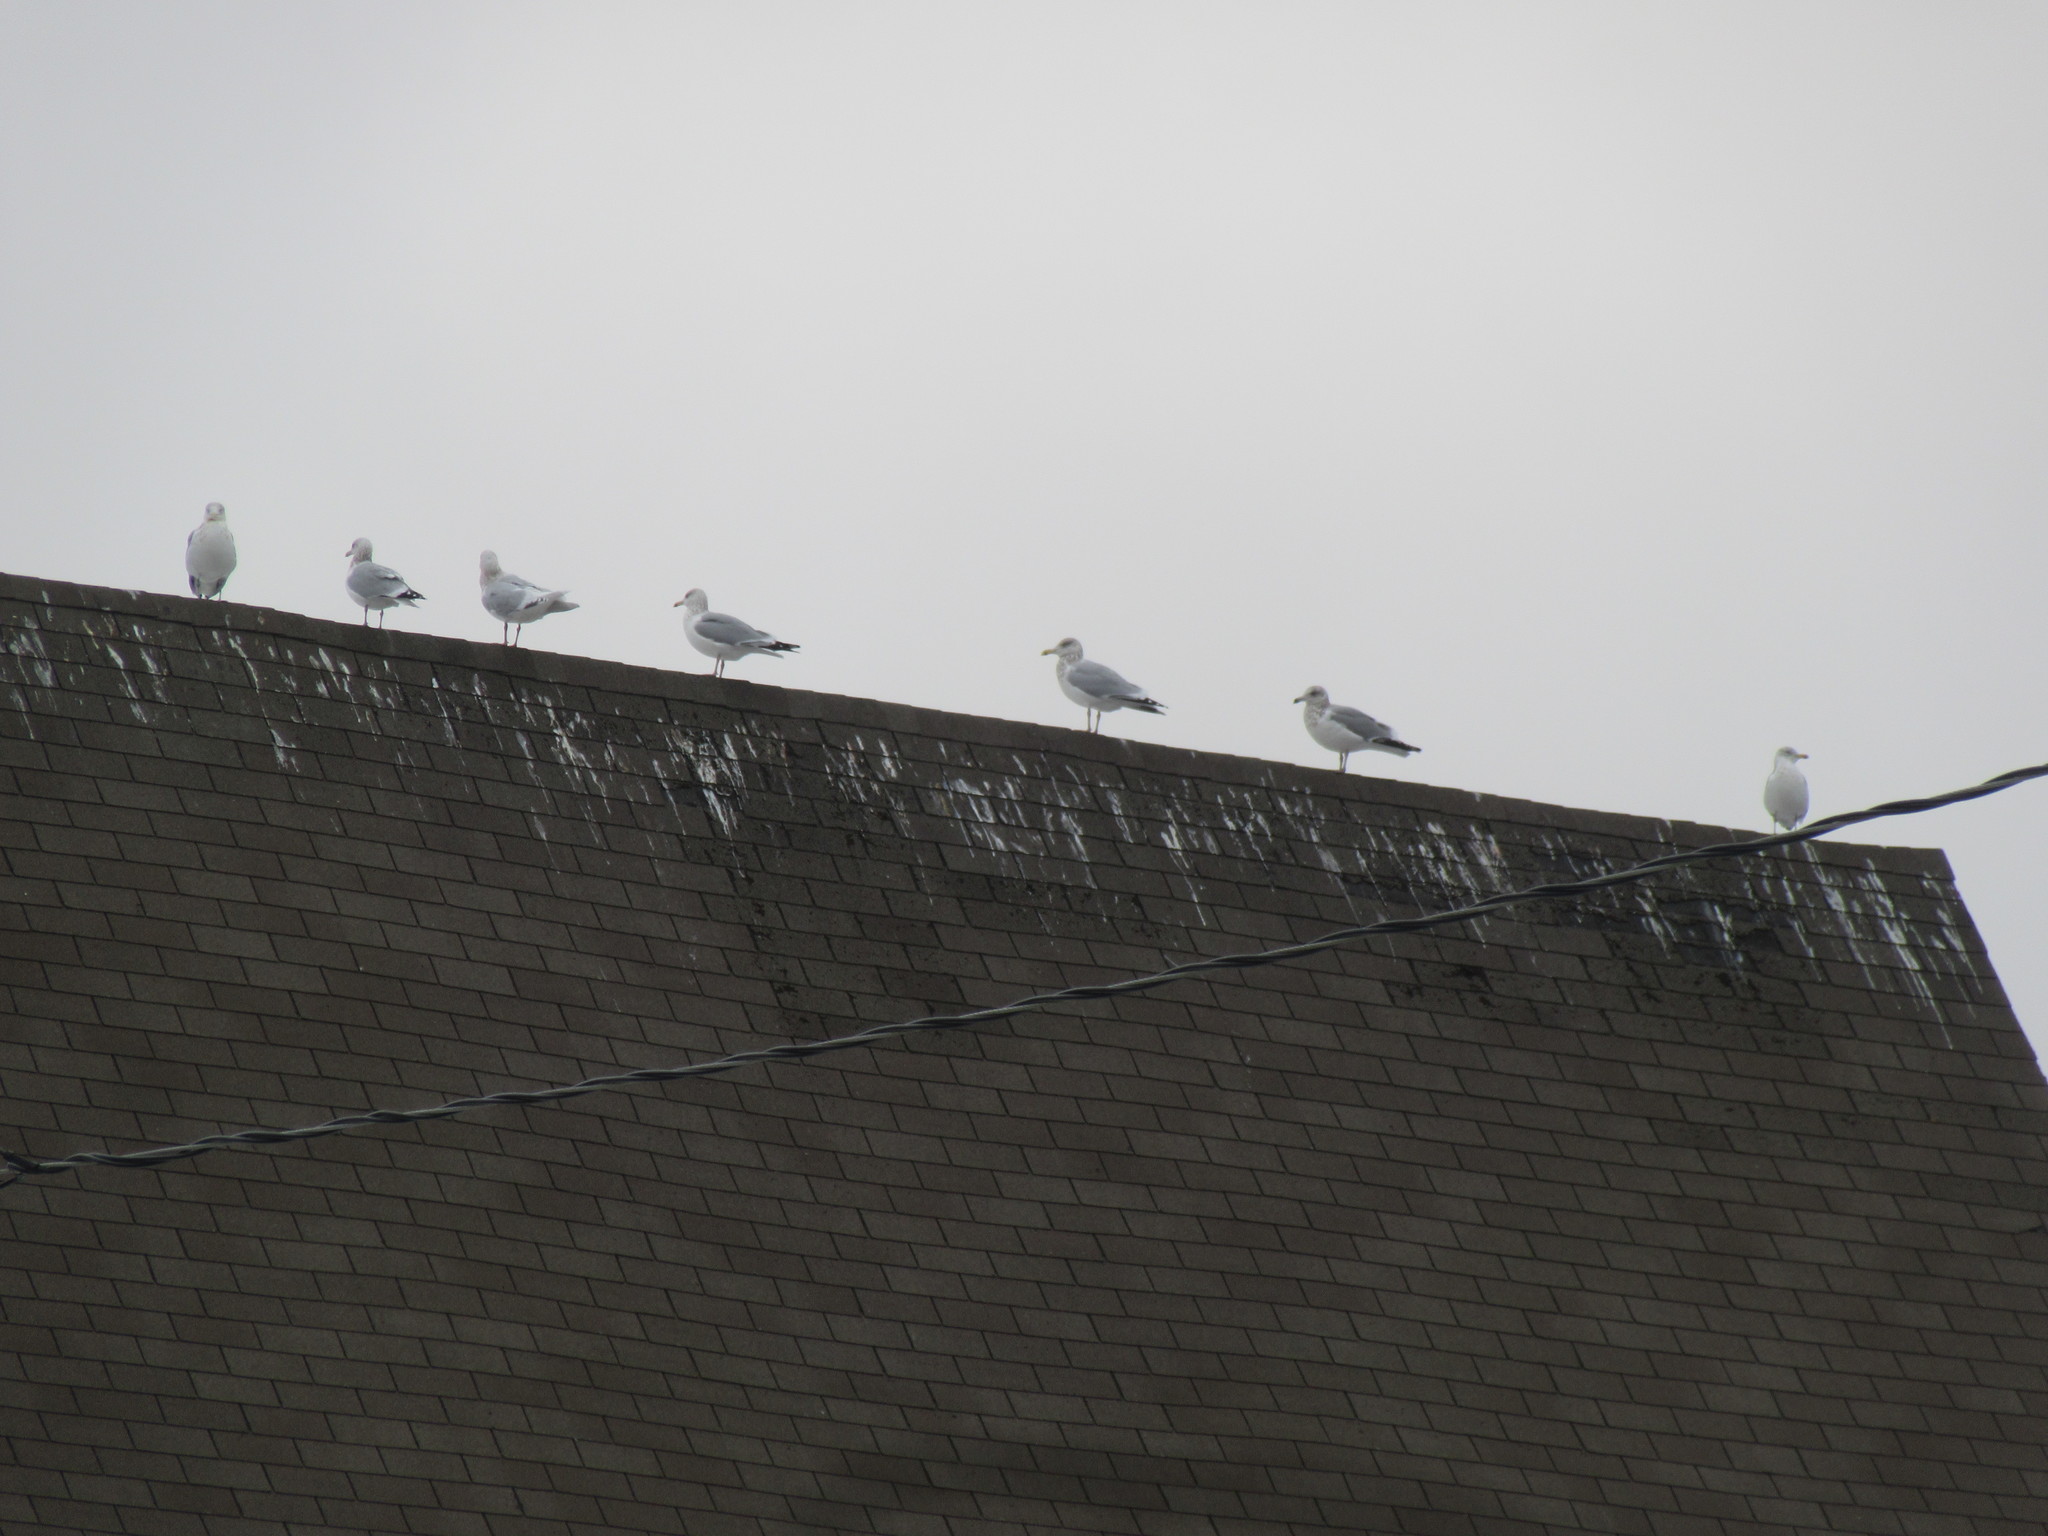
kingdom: Animalia
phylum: Chordata
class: Aves
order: Charadriiformes
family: Laridae
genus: Larus
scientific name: Larus argentatus
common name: Herring gull
